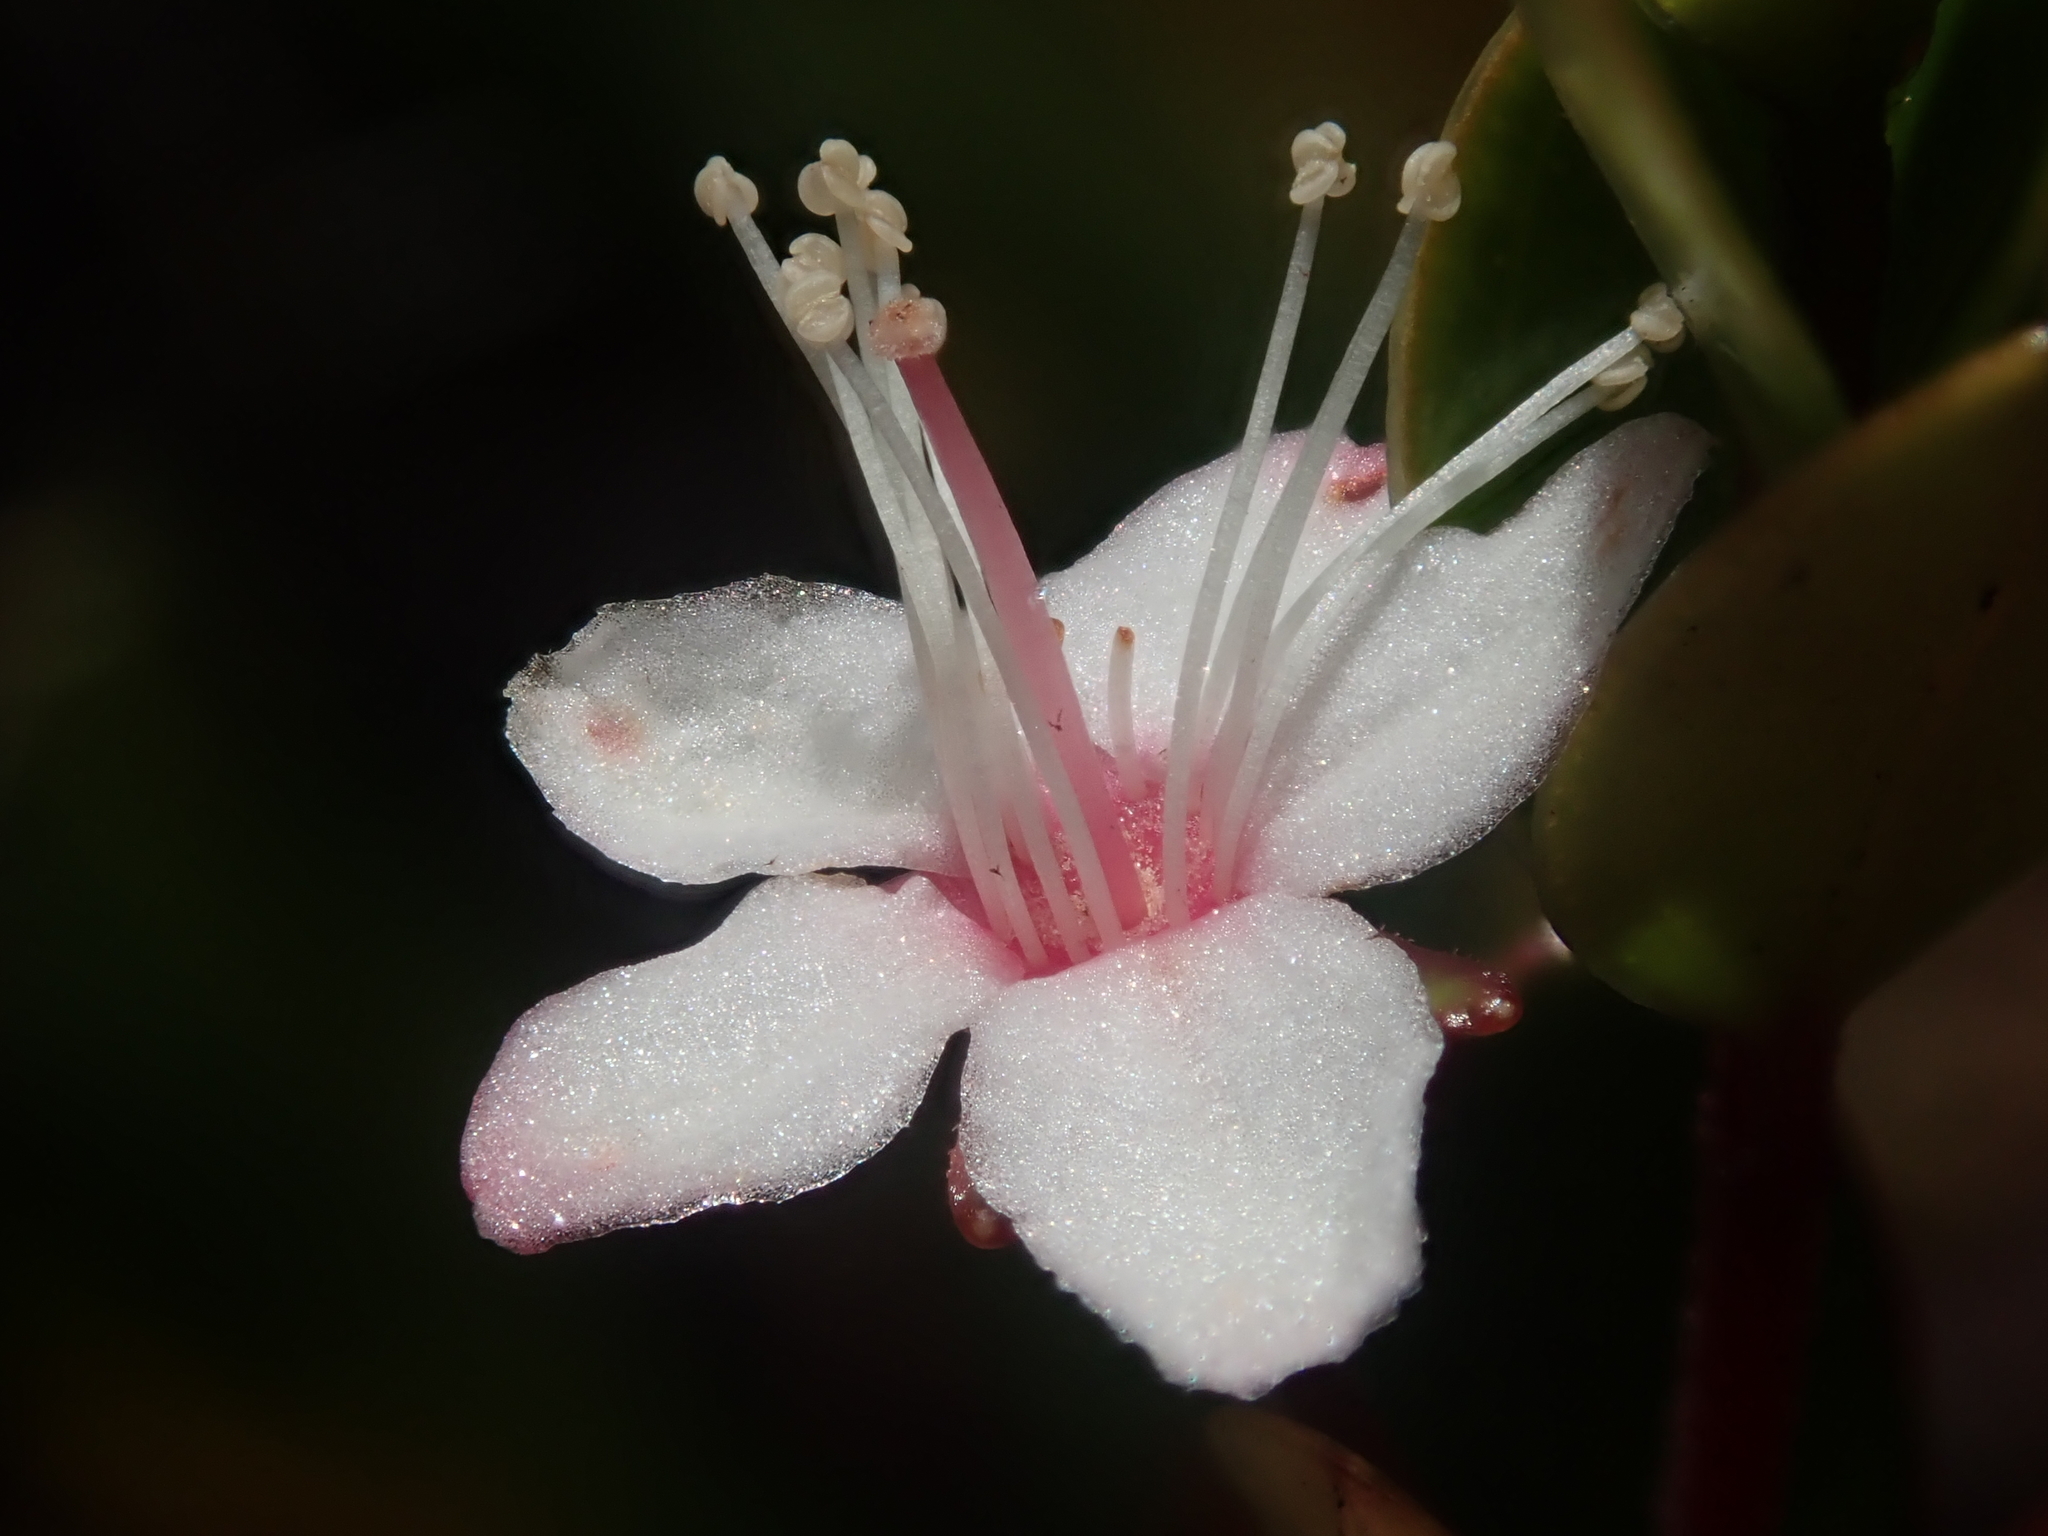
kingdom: Plantae
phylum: Tracheophyta
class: Magnoliopsida
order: Myrtales
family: Myrtaceae
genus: Myrteola
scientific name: Myrteola nummularia
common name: Cranberry-myrtle
